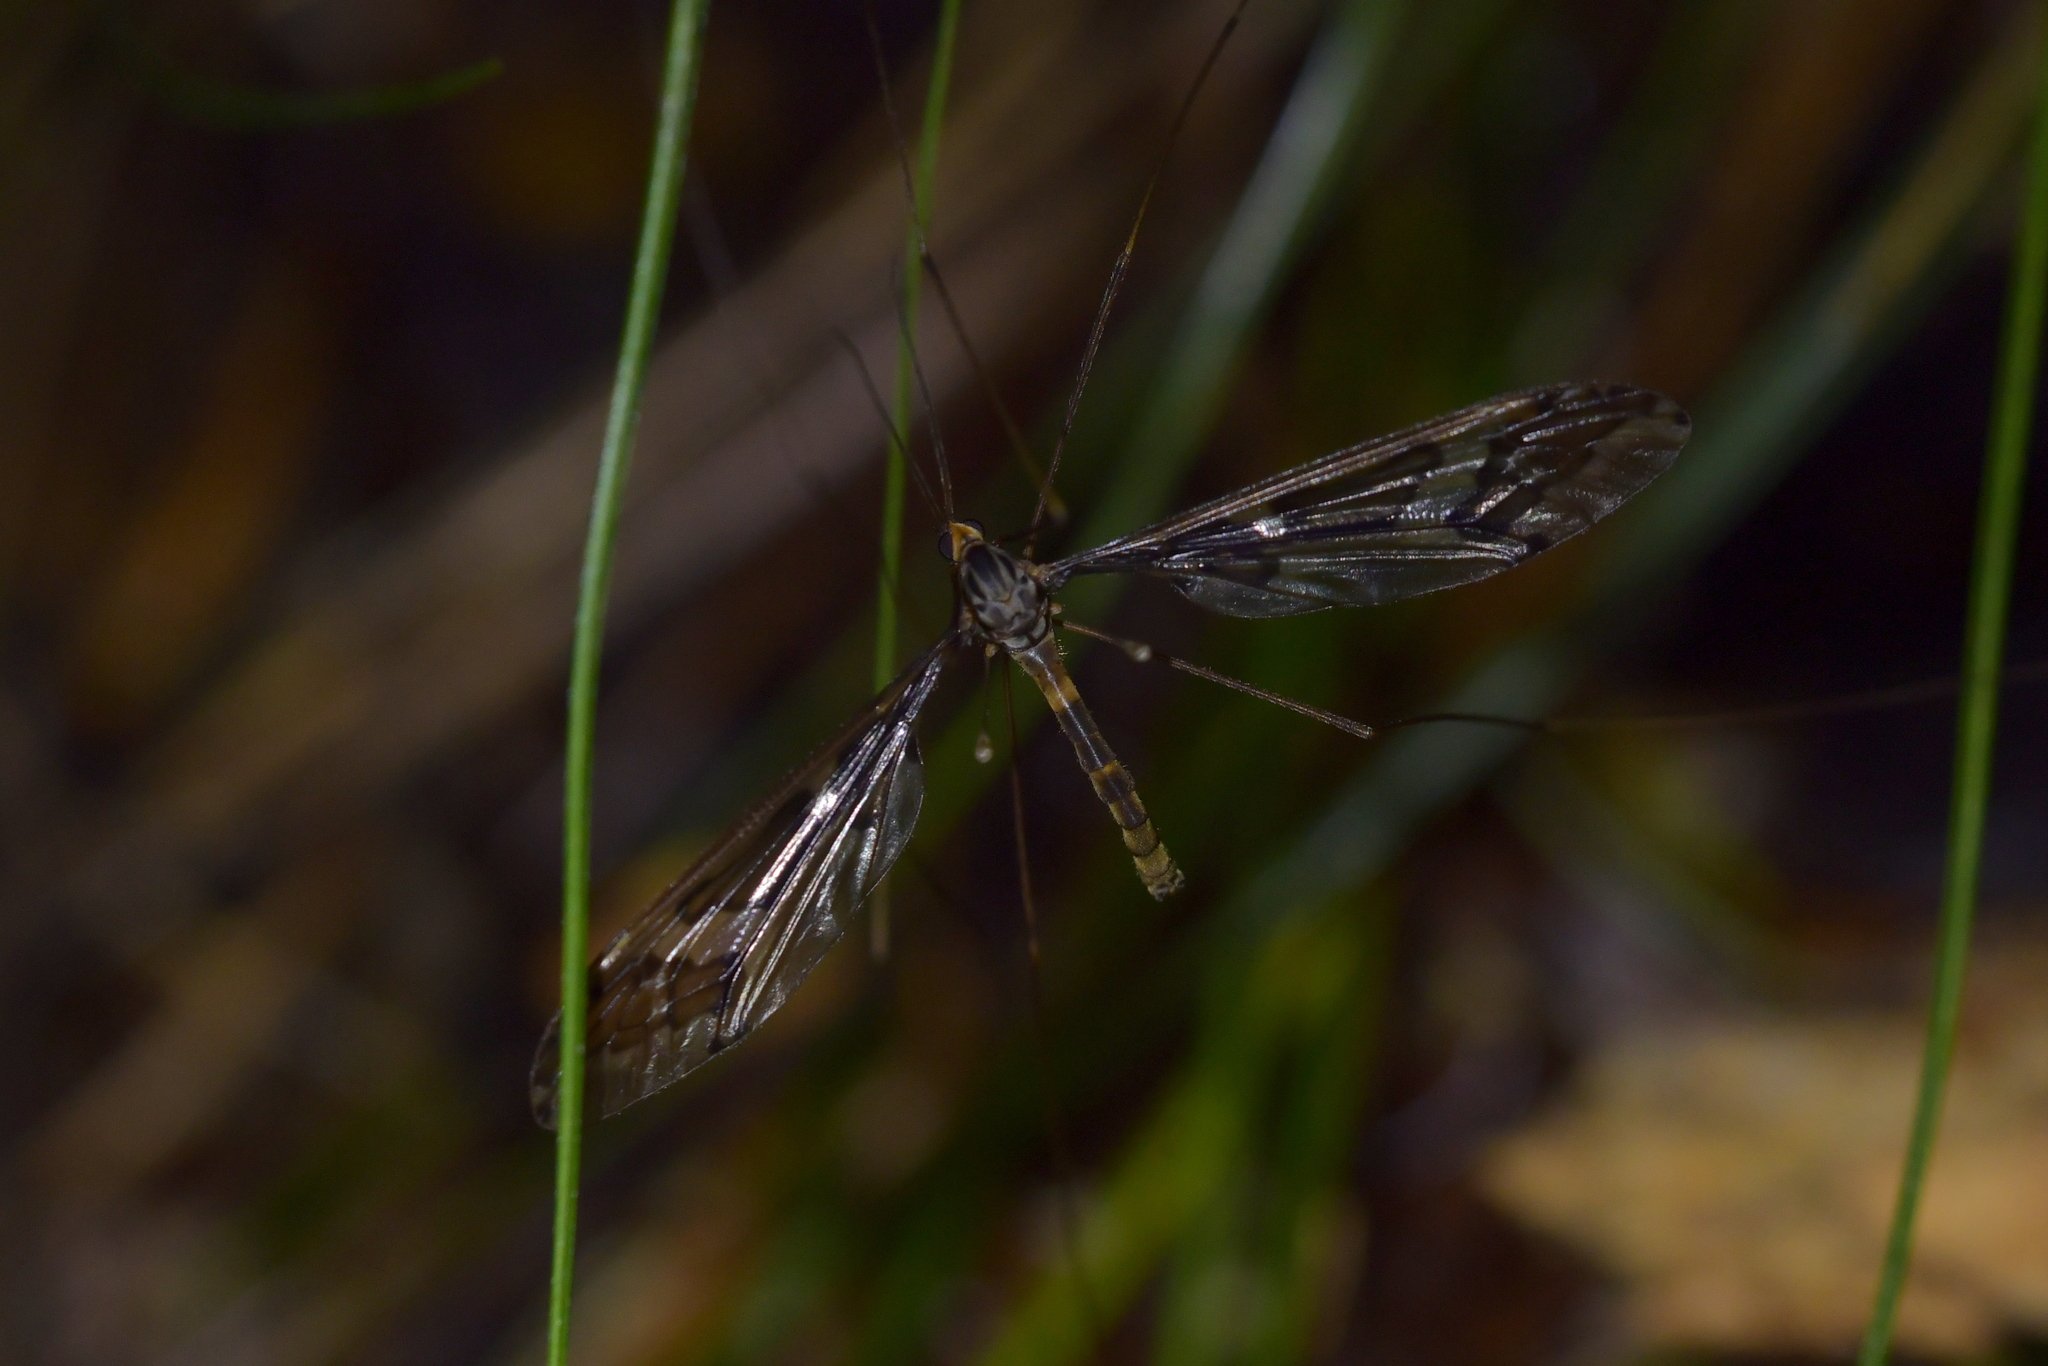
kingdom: Animalia
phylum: Arthropoda
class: Insecta
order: Diptera
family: Tipulidae
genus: Leptotarsus
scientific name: Leptotarsus binotatus
